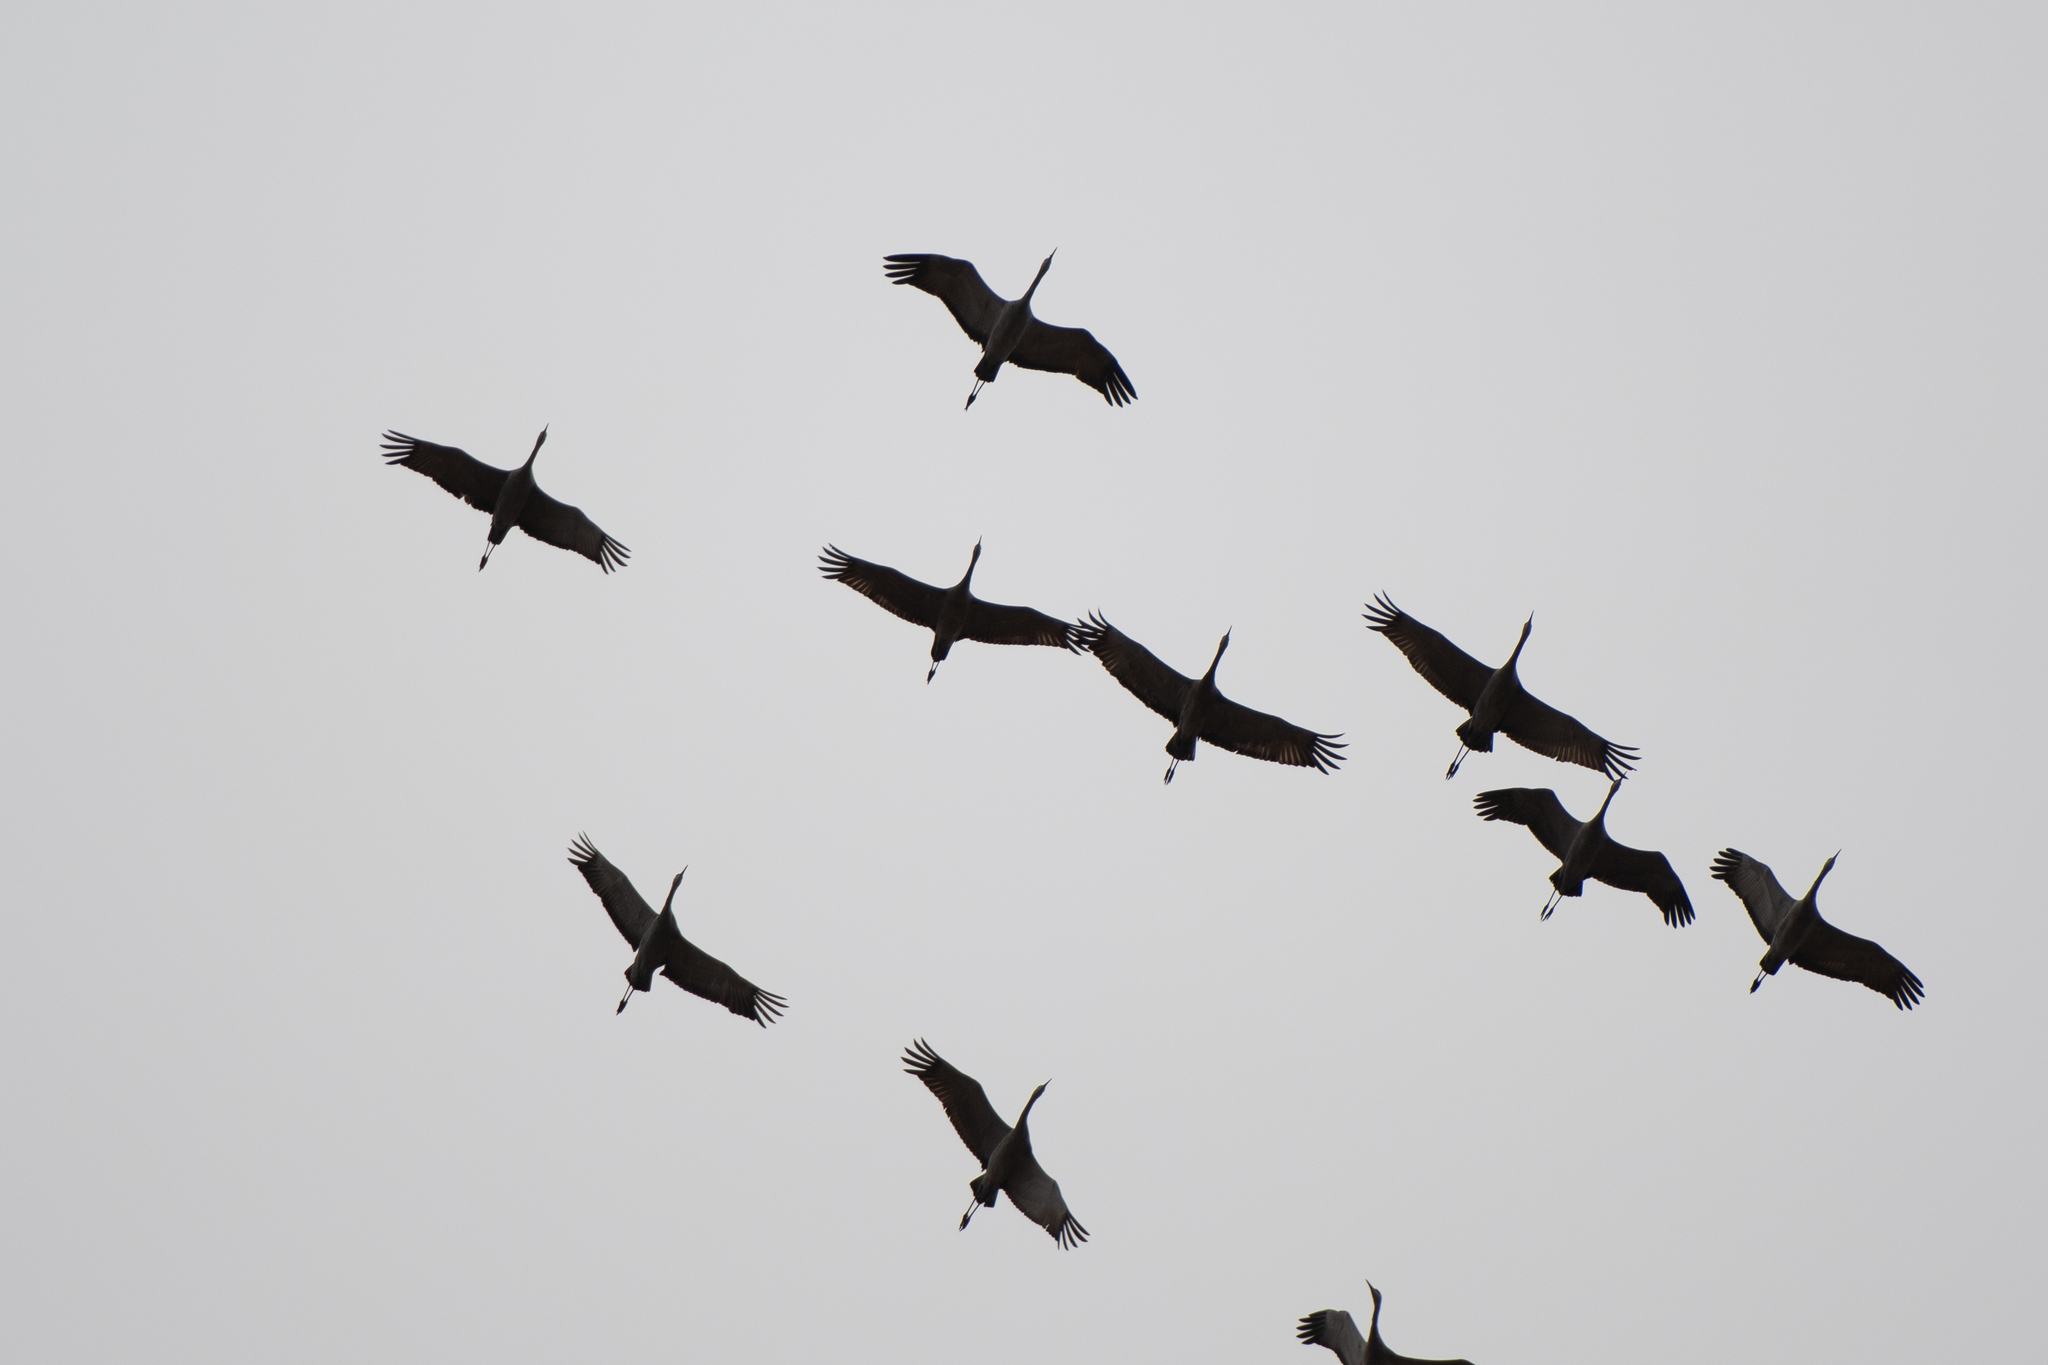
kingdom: Animalia
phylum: Chordata
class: Aves
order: Gruiformes
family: Gruidae
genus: Grus
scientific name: Grus canadensis
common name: Sandhill crane
